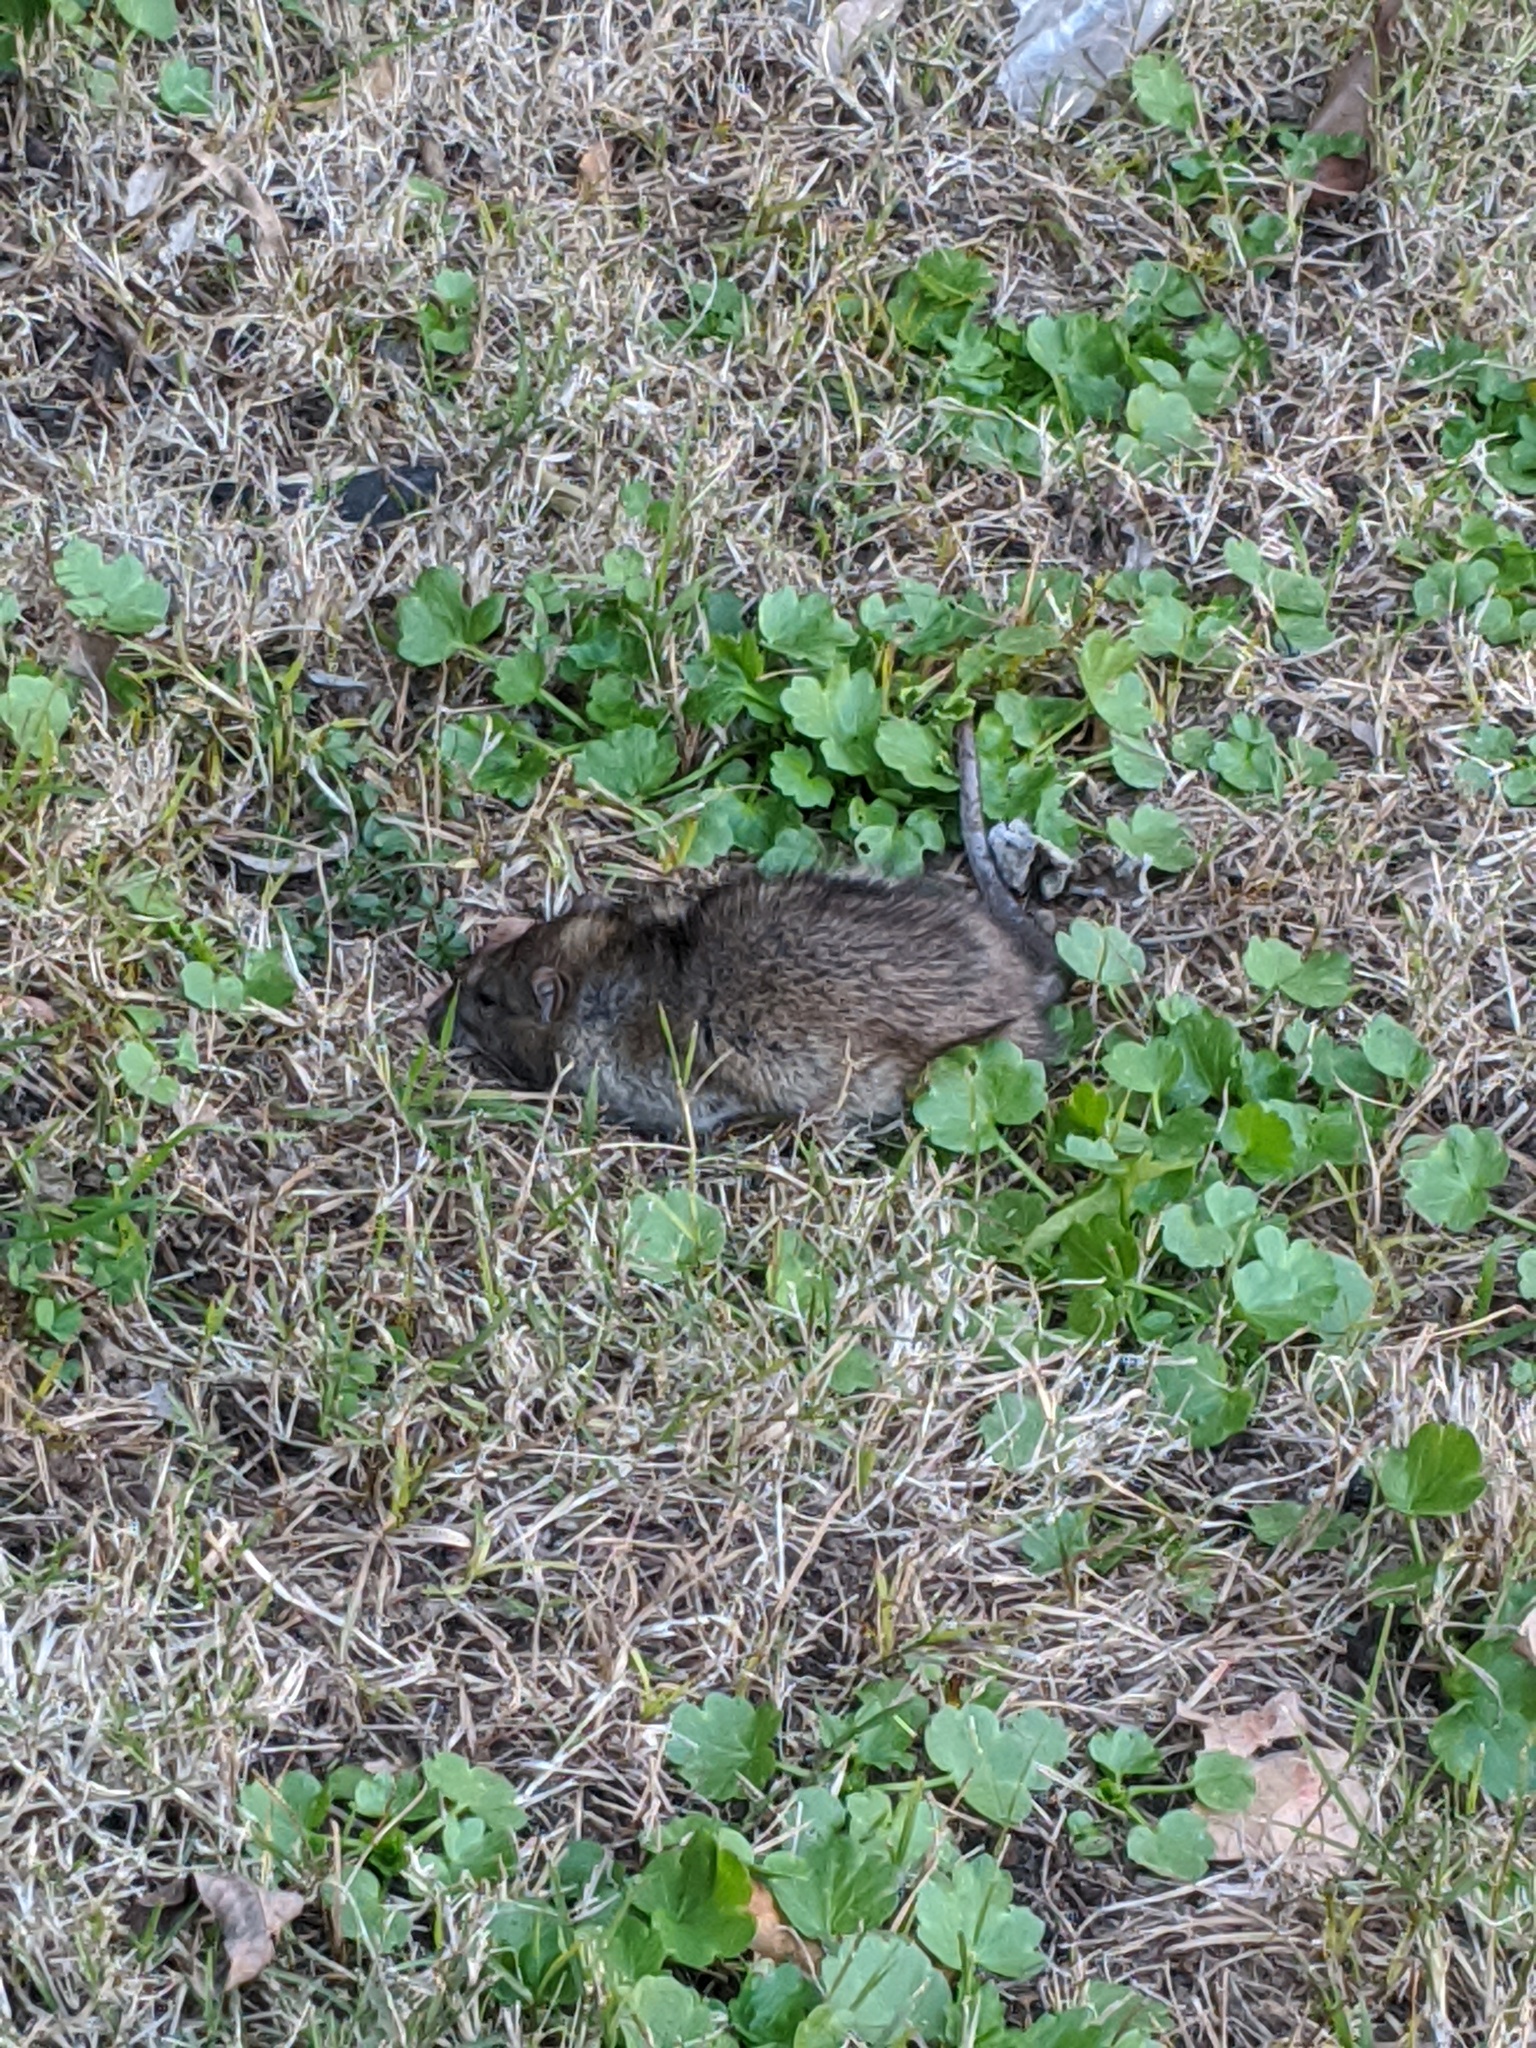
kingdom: Animalia
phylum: Chordata
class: Mammalia
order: Rodentia
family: Muridae
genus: Rattus
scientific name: Rattus norvegicus
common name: Brown rat
